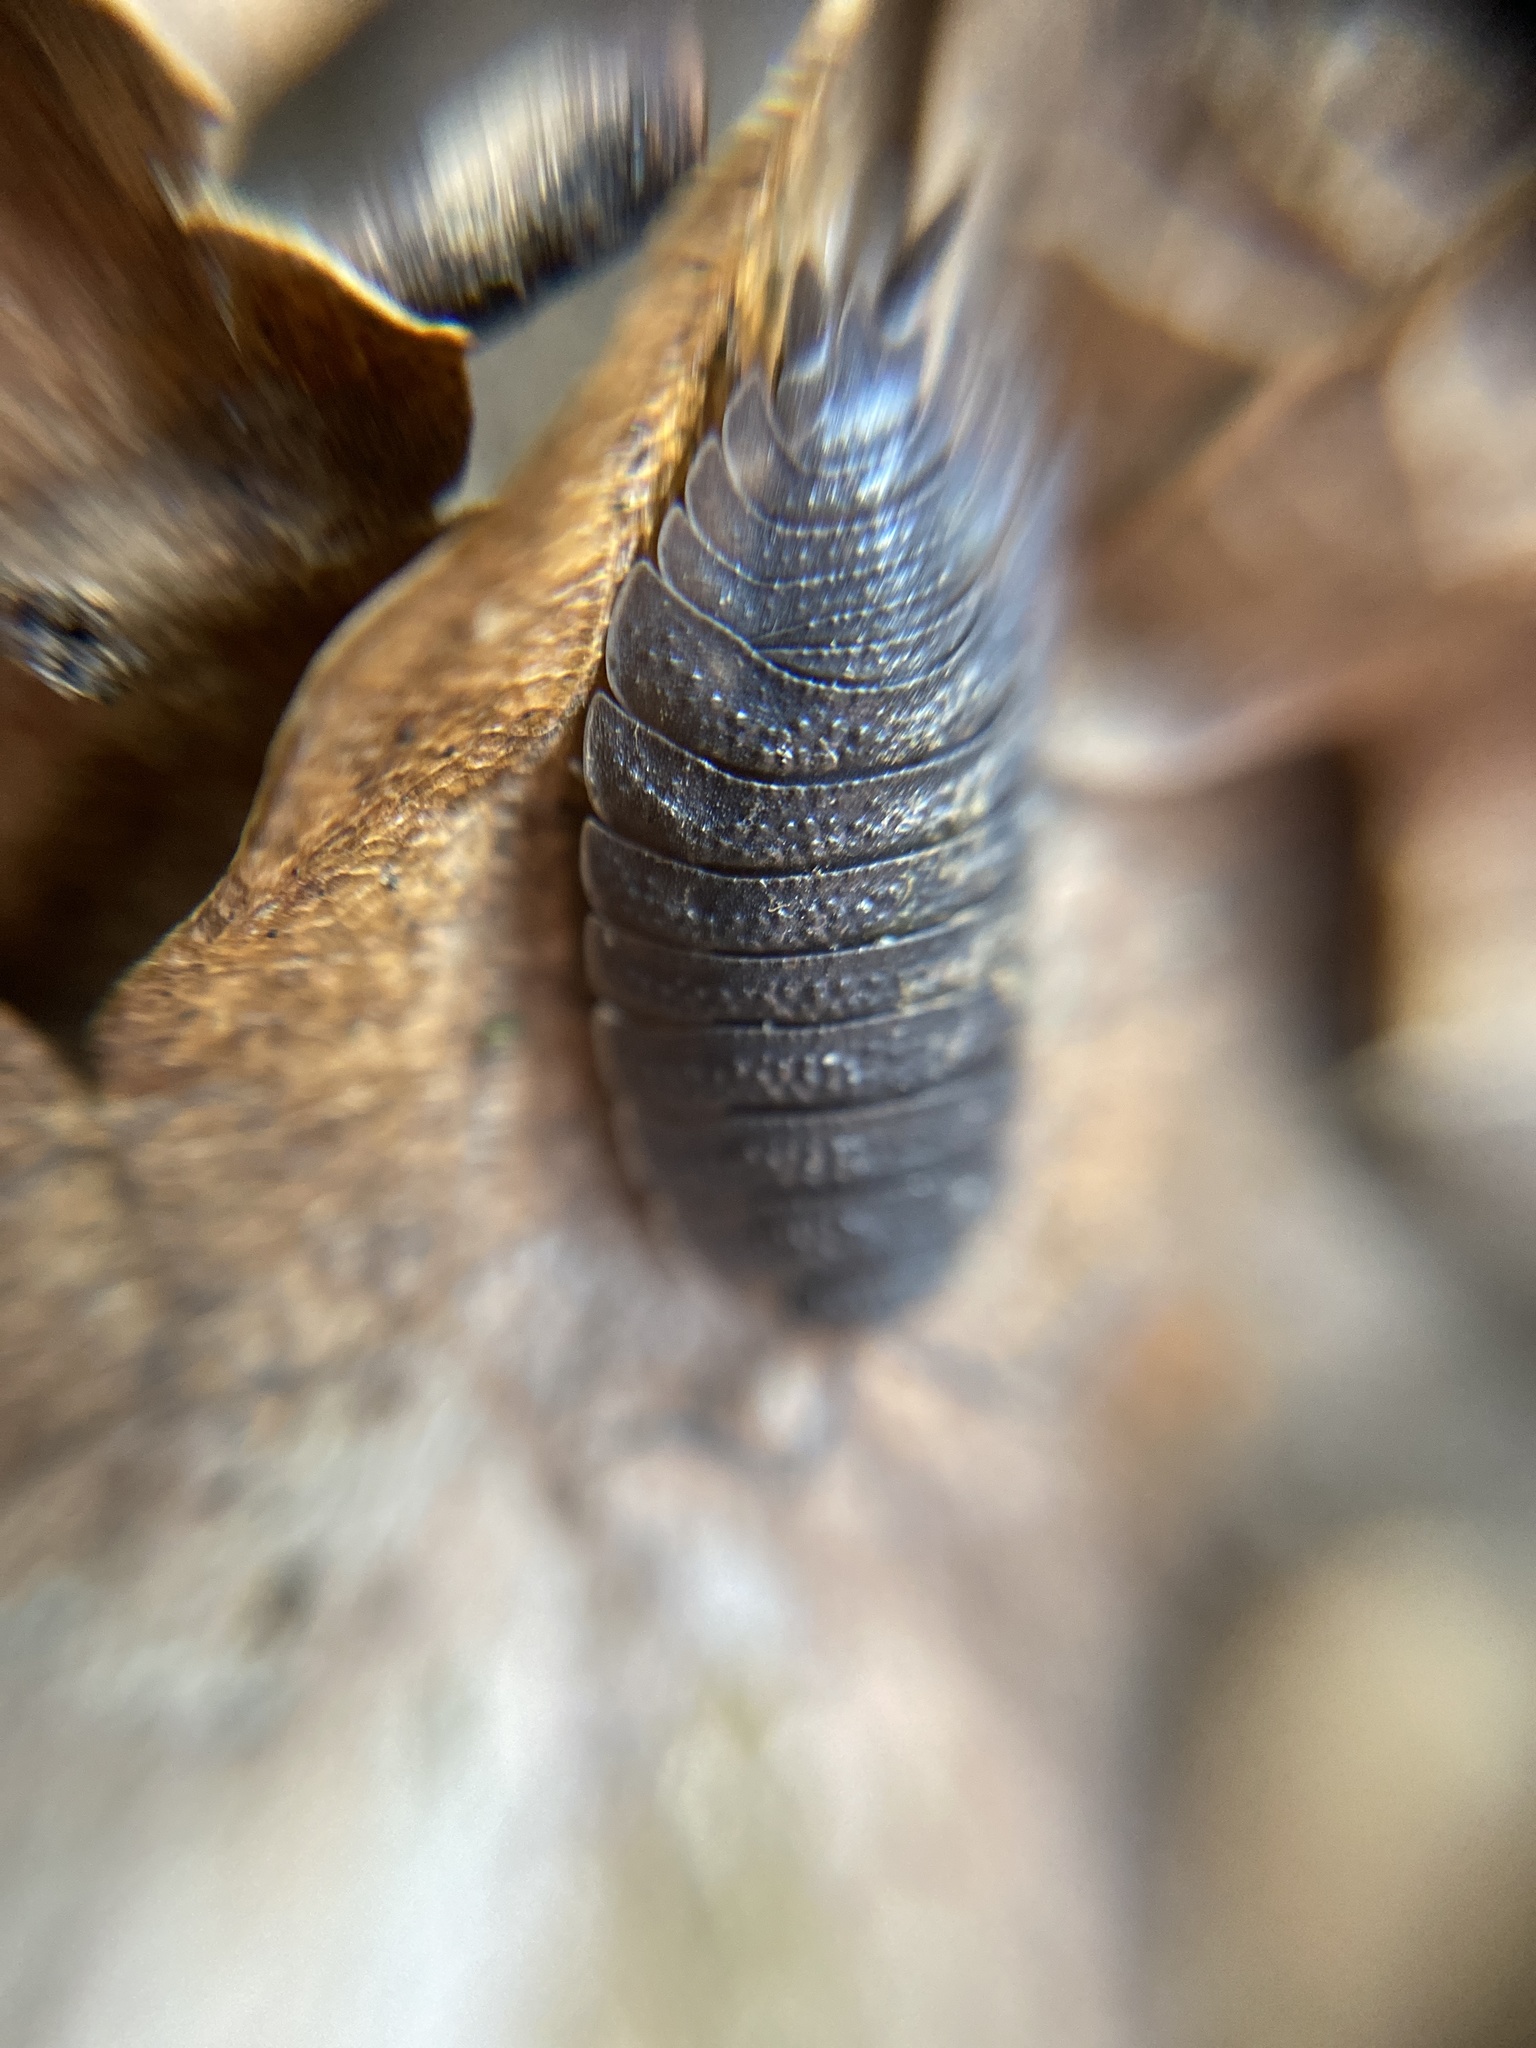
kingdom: Animalia
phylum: Arthropoda
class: Malacostraca
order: Isopoda
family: Porcellionidae
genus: Porcellio
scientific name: Porcellio scaber
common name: Common rough woodlouse
